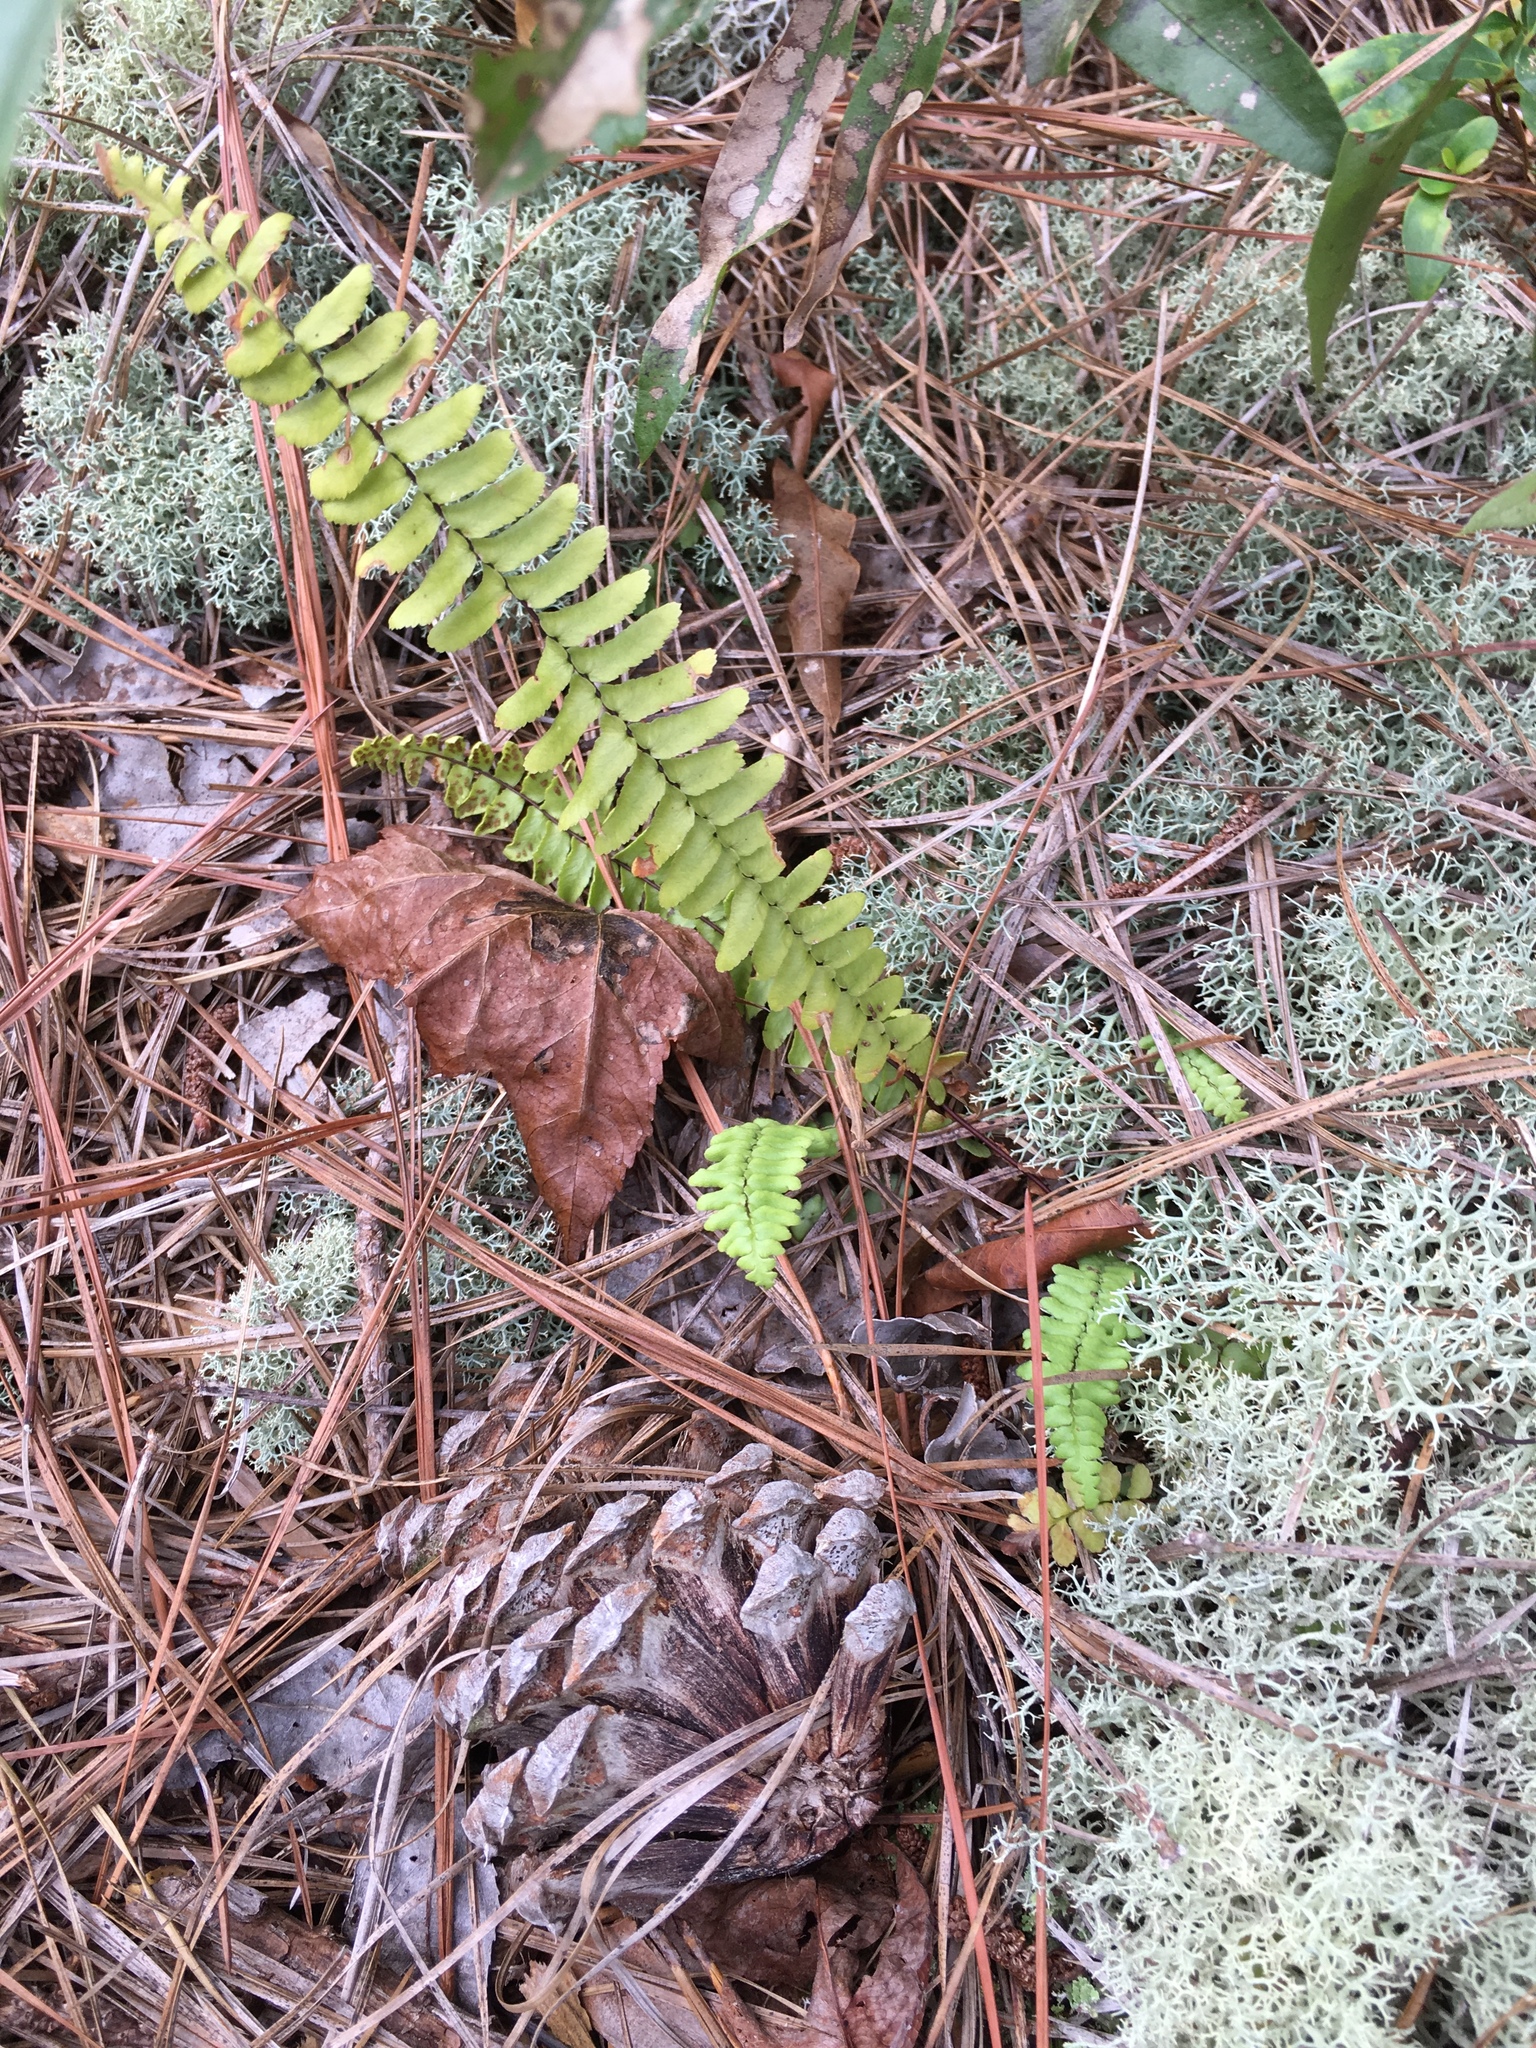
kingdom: Plantae
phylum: Tracheophyta
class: Polypodiopsida
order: Polypodiales
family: Aspleniaceae
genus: Asplenium
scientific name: Asplenium platyneuron
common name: Ebony spleenwort
